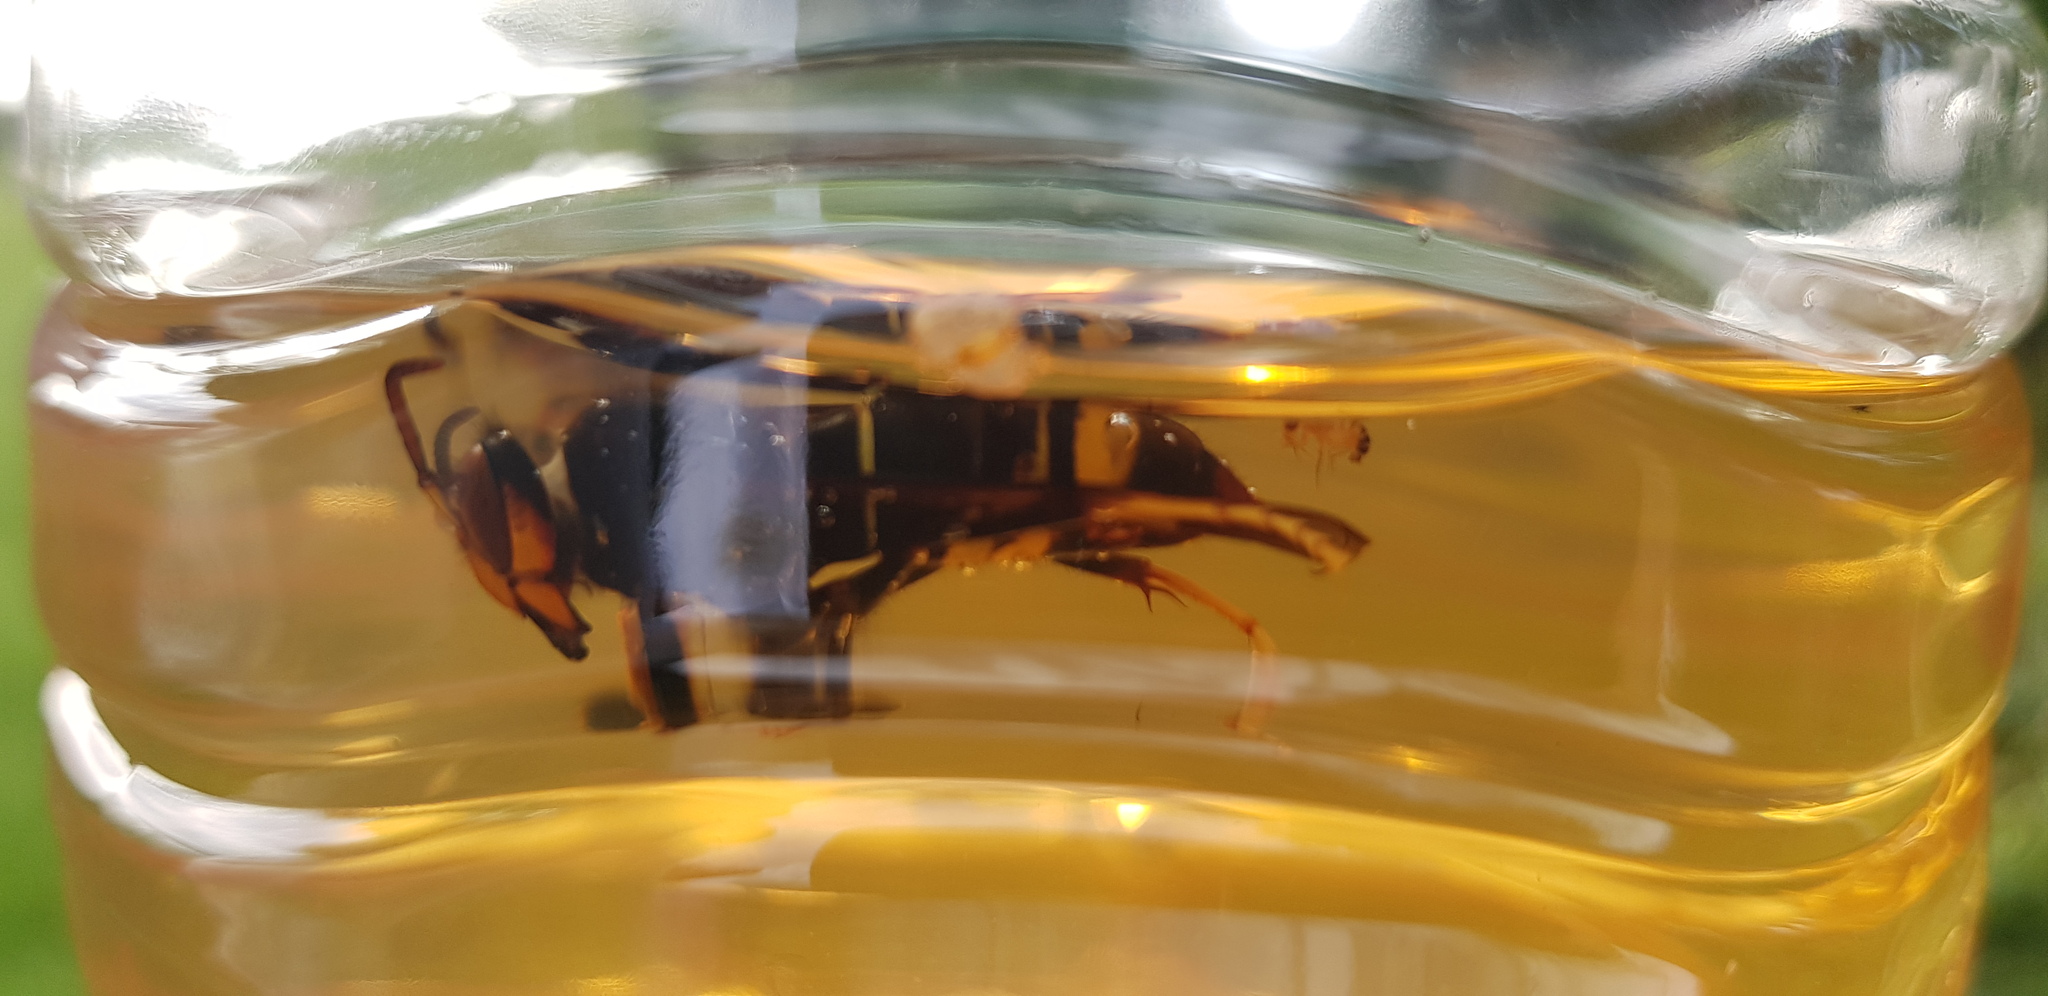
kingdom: Animalia
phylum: Arthropoda
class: Insecta
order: Hymenoptera
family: Vespidae
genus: Vespa
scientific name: Vespa velutina
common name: Asian hornet
